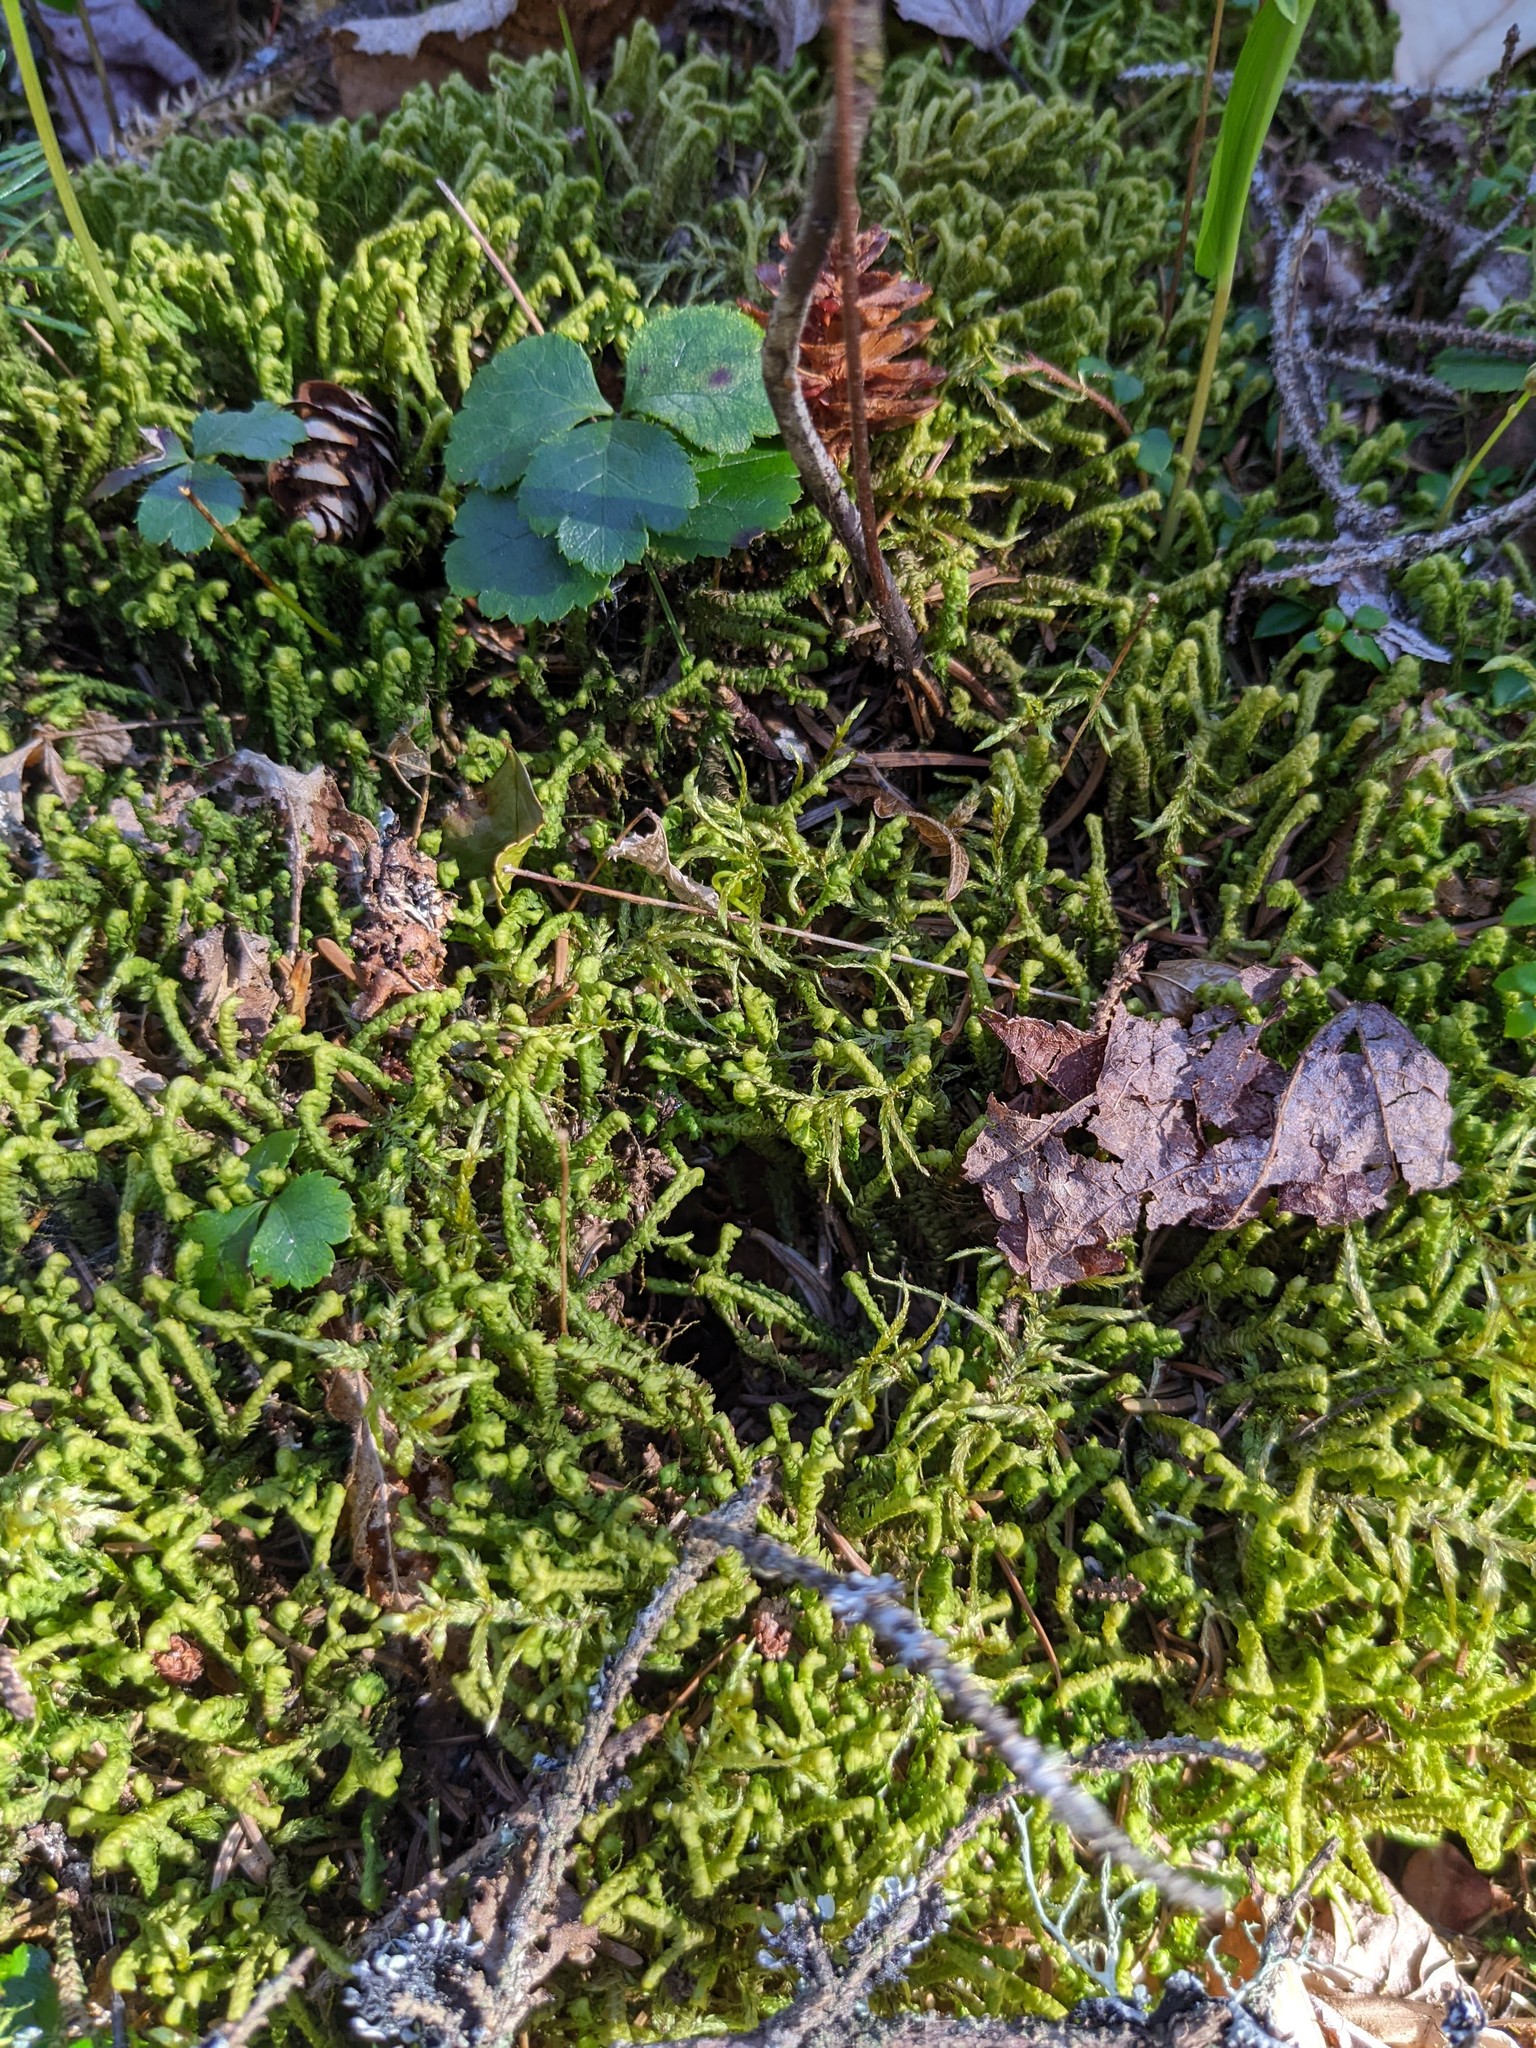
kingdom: Plantae
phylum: Tracheophyta
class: Magnoliopsida
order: Ranunculales
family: Ranunculaceae
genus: Coptis
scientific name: Coptis trifolia
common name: Canker-root
